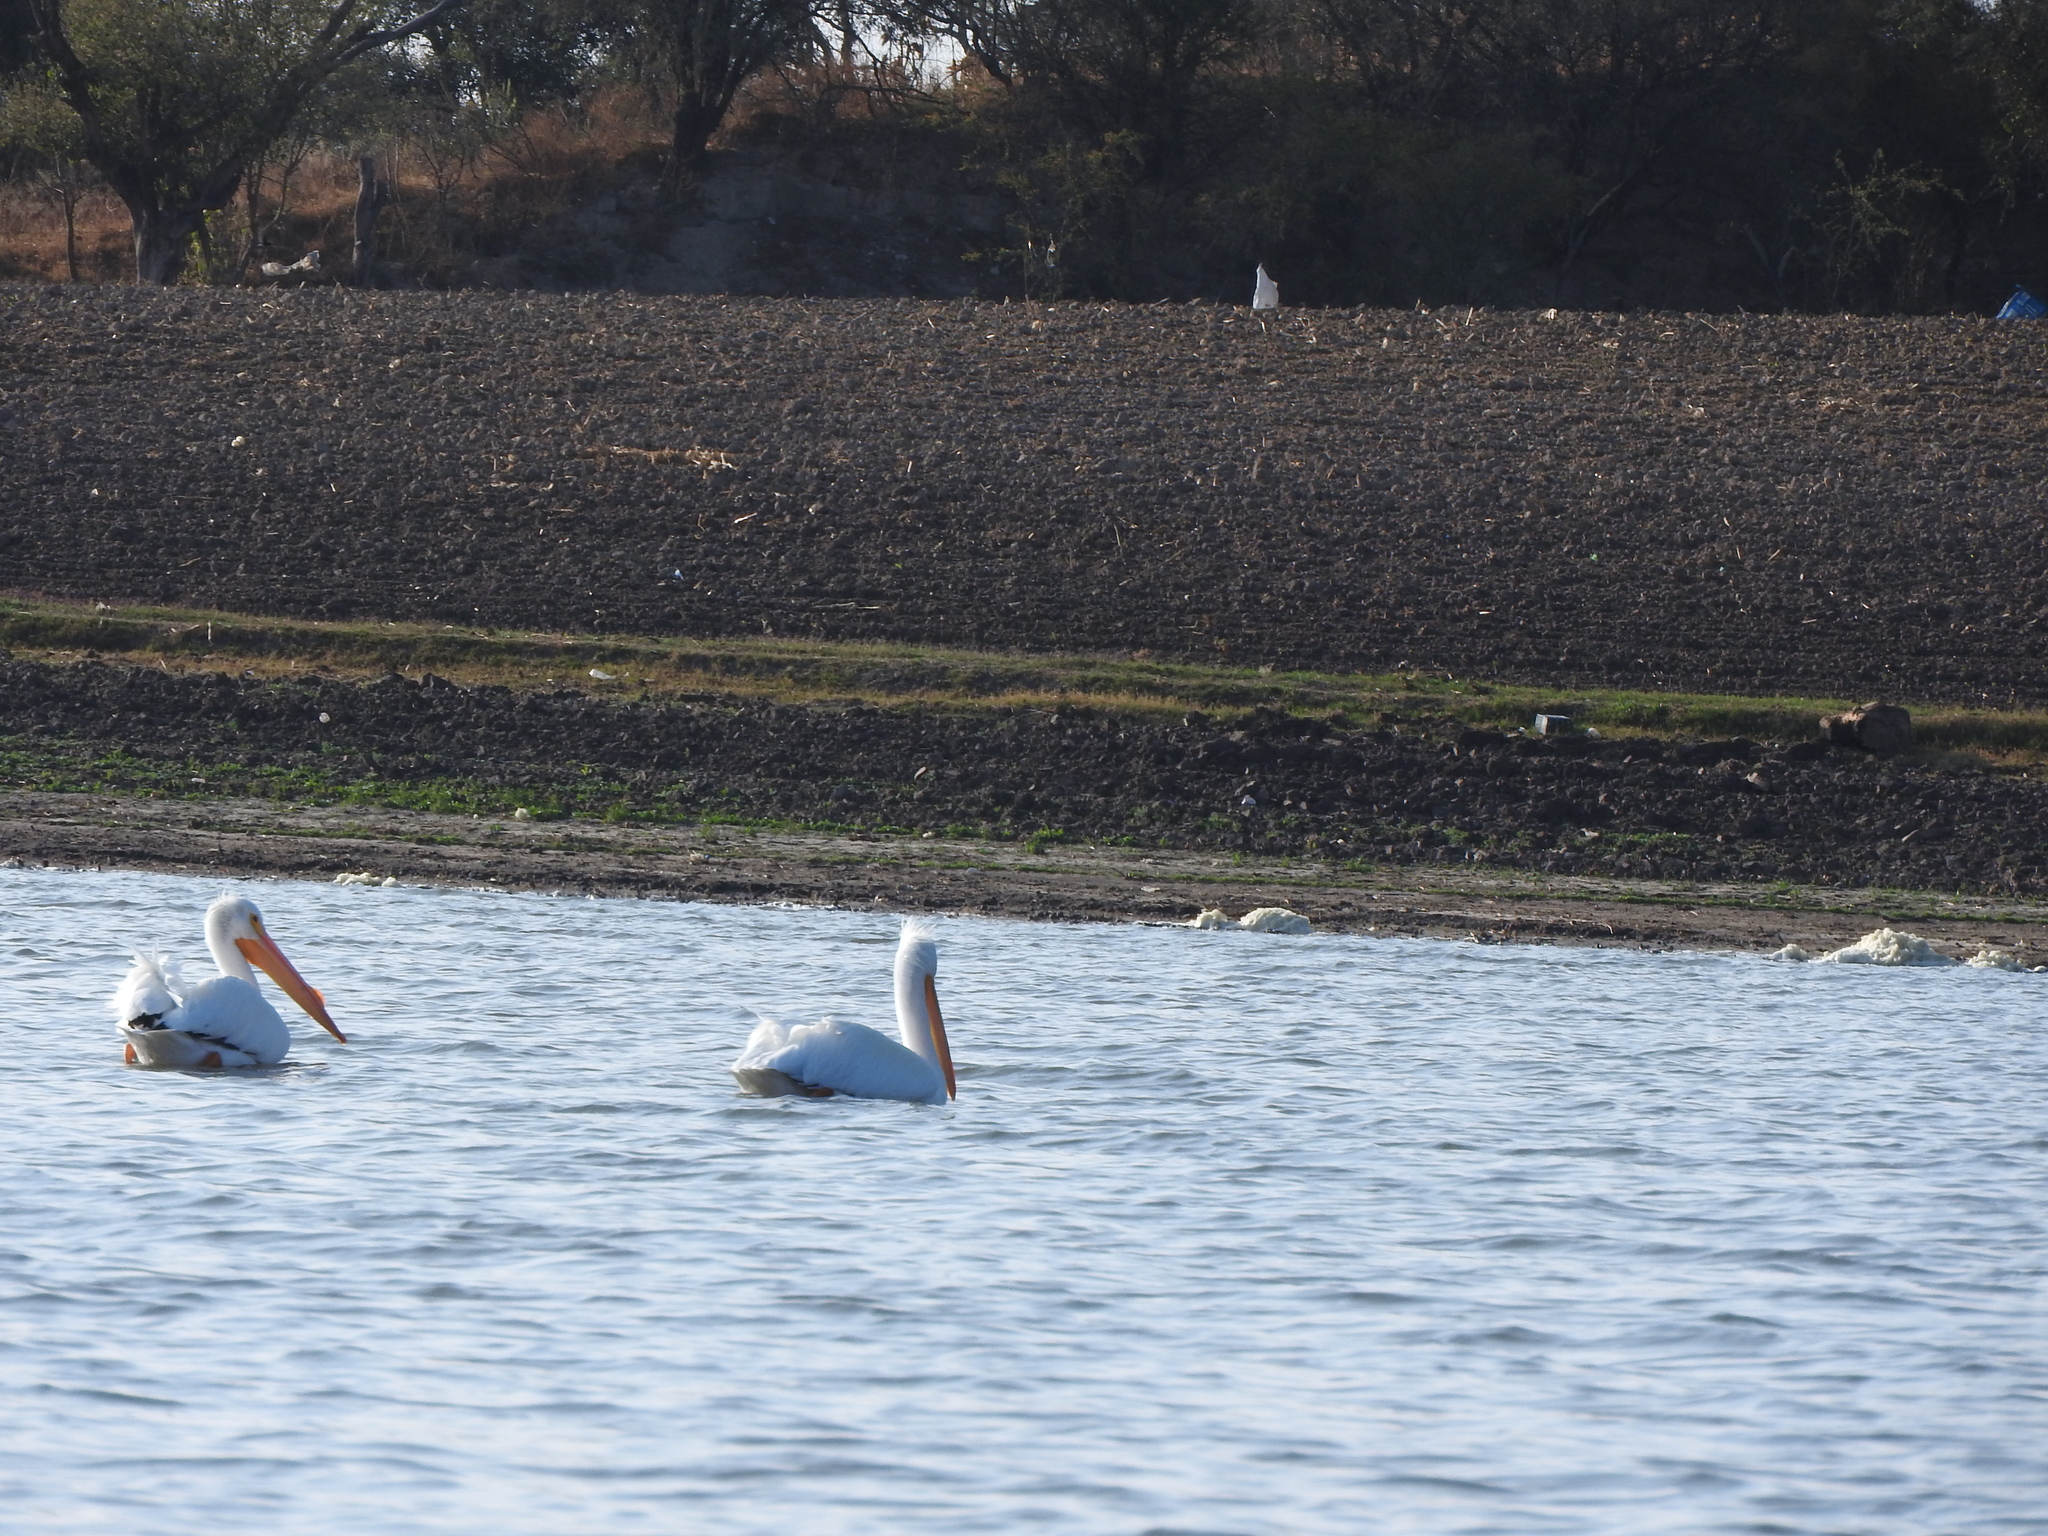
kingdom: Animalia
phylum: Chordata
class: Aves
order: Pelecaniformes
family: Pelecanidae
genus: Pelecanus
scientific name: Pelecanus erythrorhynchos
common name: American white pelican
